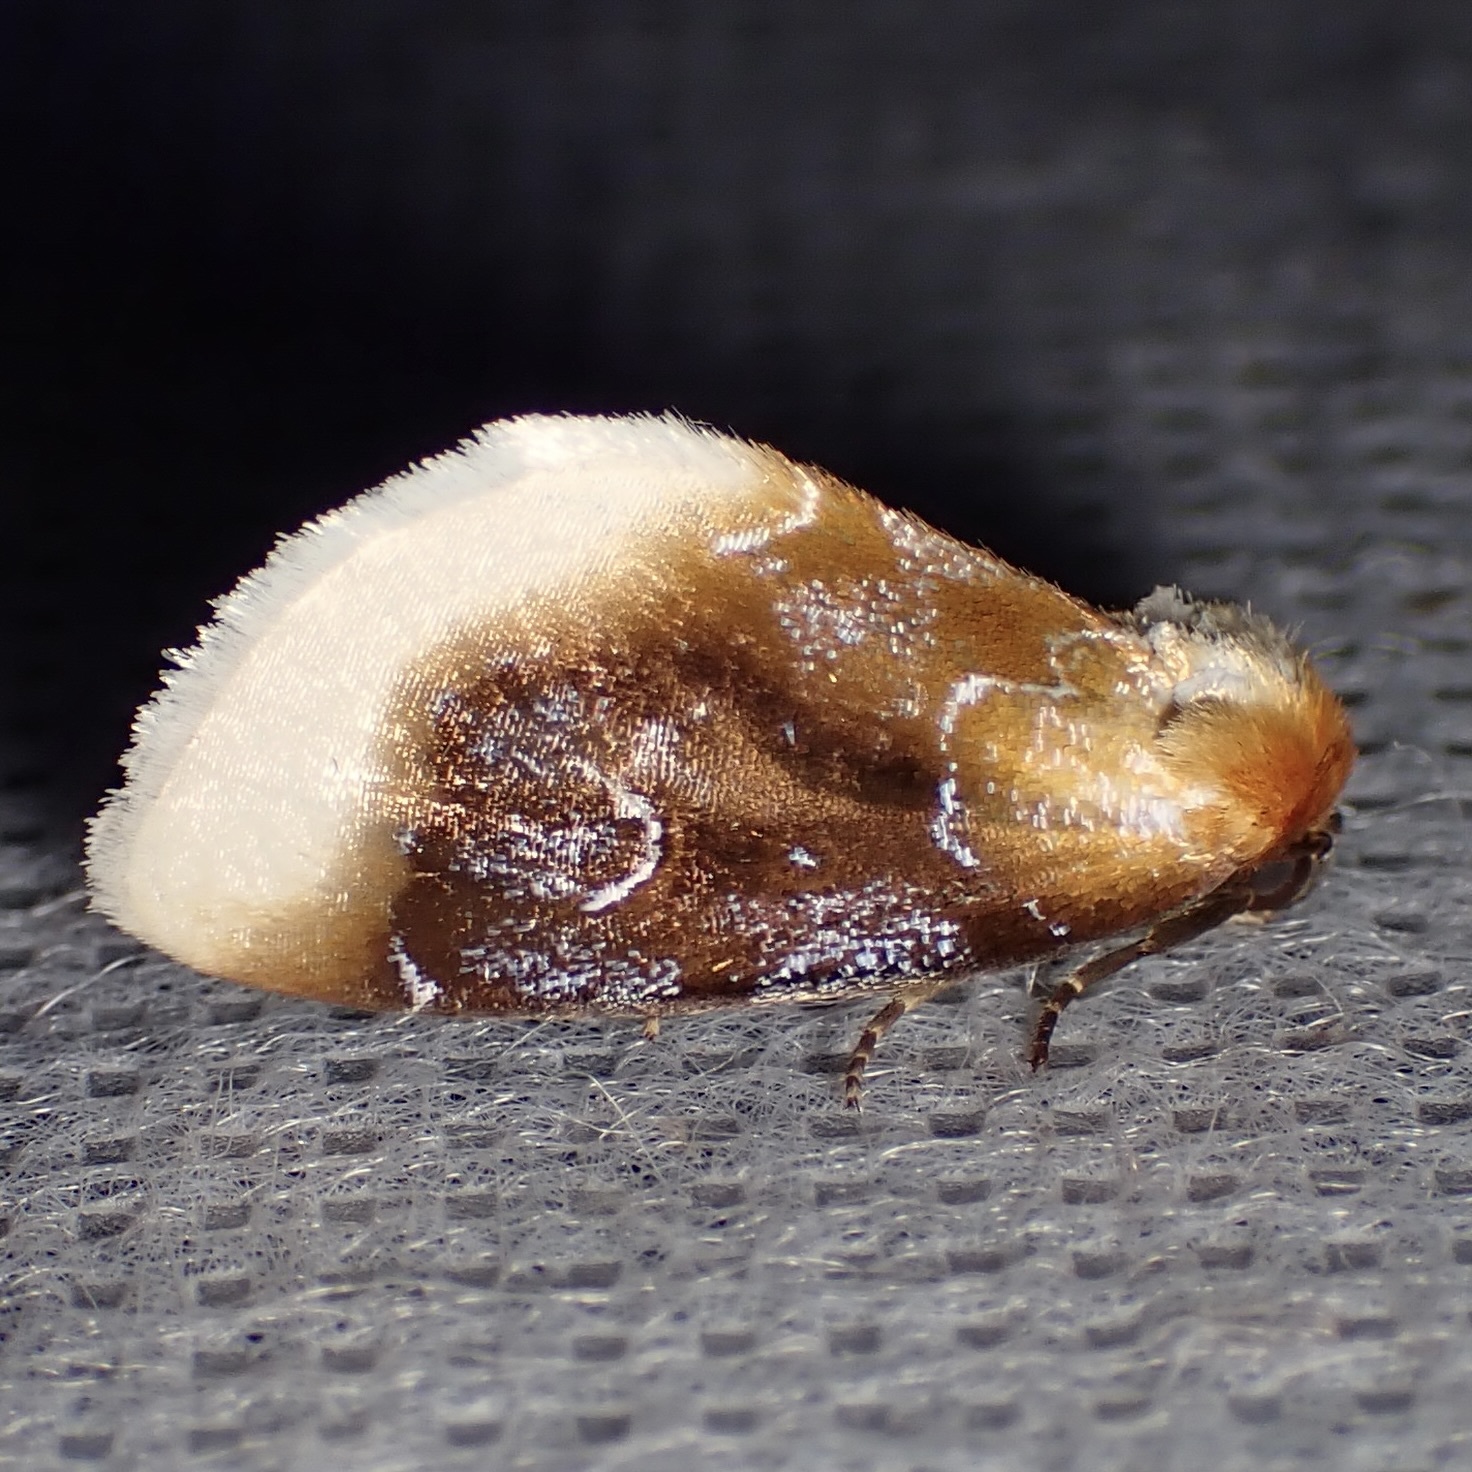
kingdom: Animalia
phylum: Arthropoda
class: Insecta
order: Lepidoptera
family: Noctuidae
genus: Chrysoecia
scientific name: Chrysoecia scira
